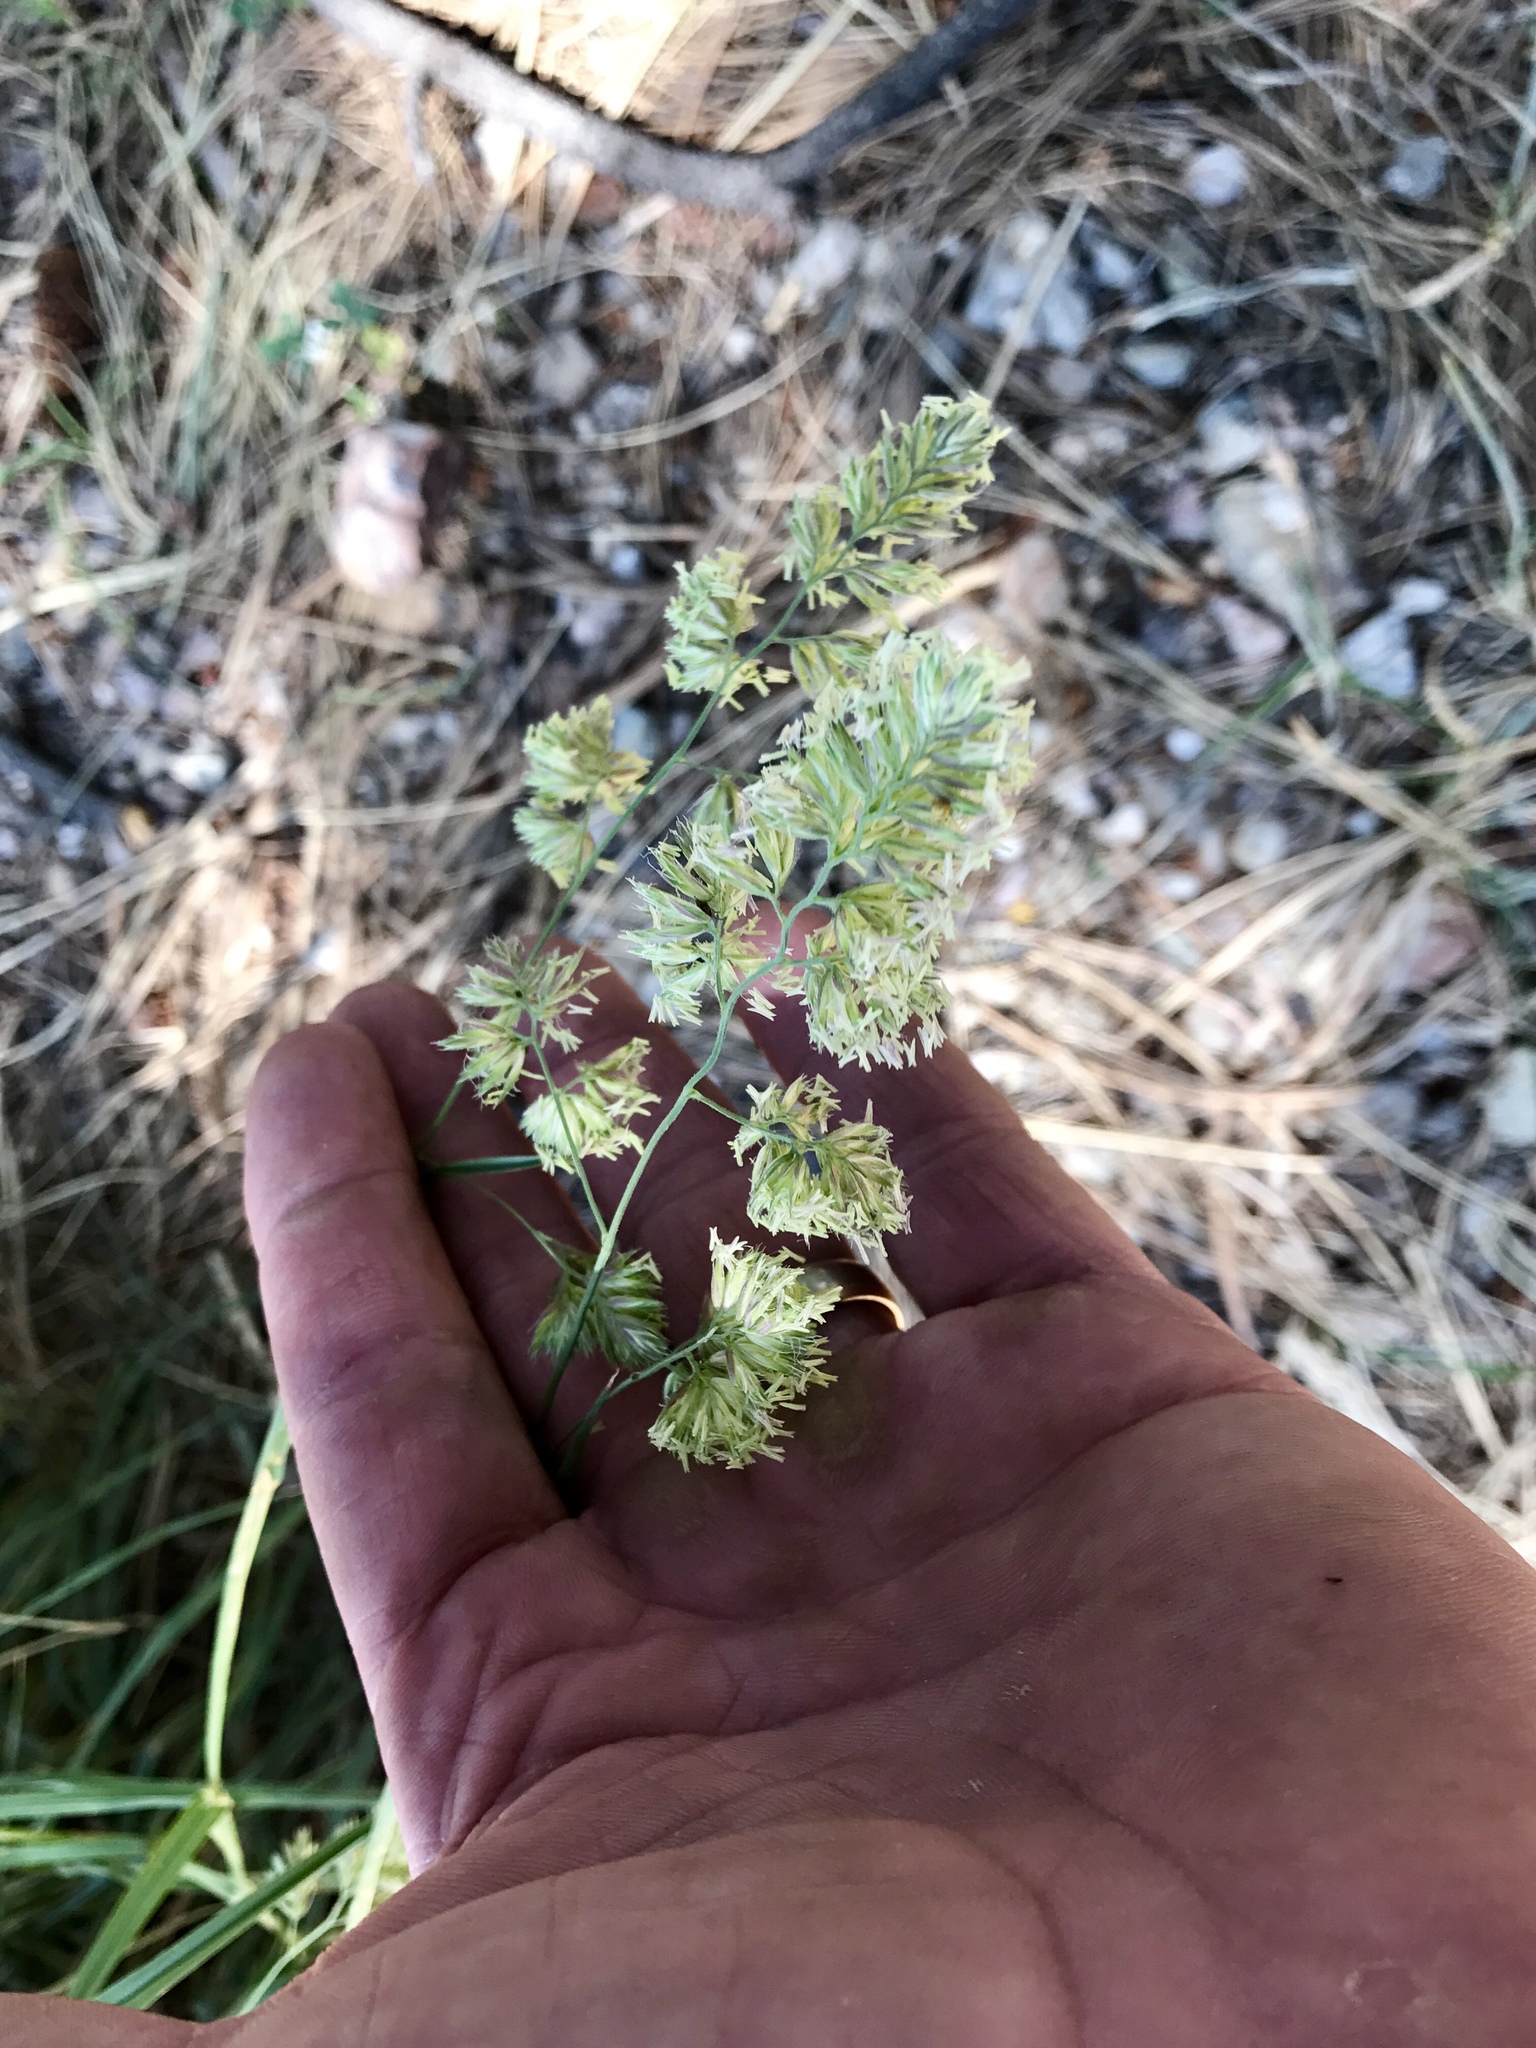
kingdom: Plantae
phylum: Tracheophyta
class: Liliopsida
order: Poales
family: Poaceae
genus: Dactylis
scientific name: Dactylis glomerata
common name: Orchardgrass
